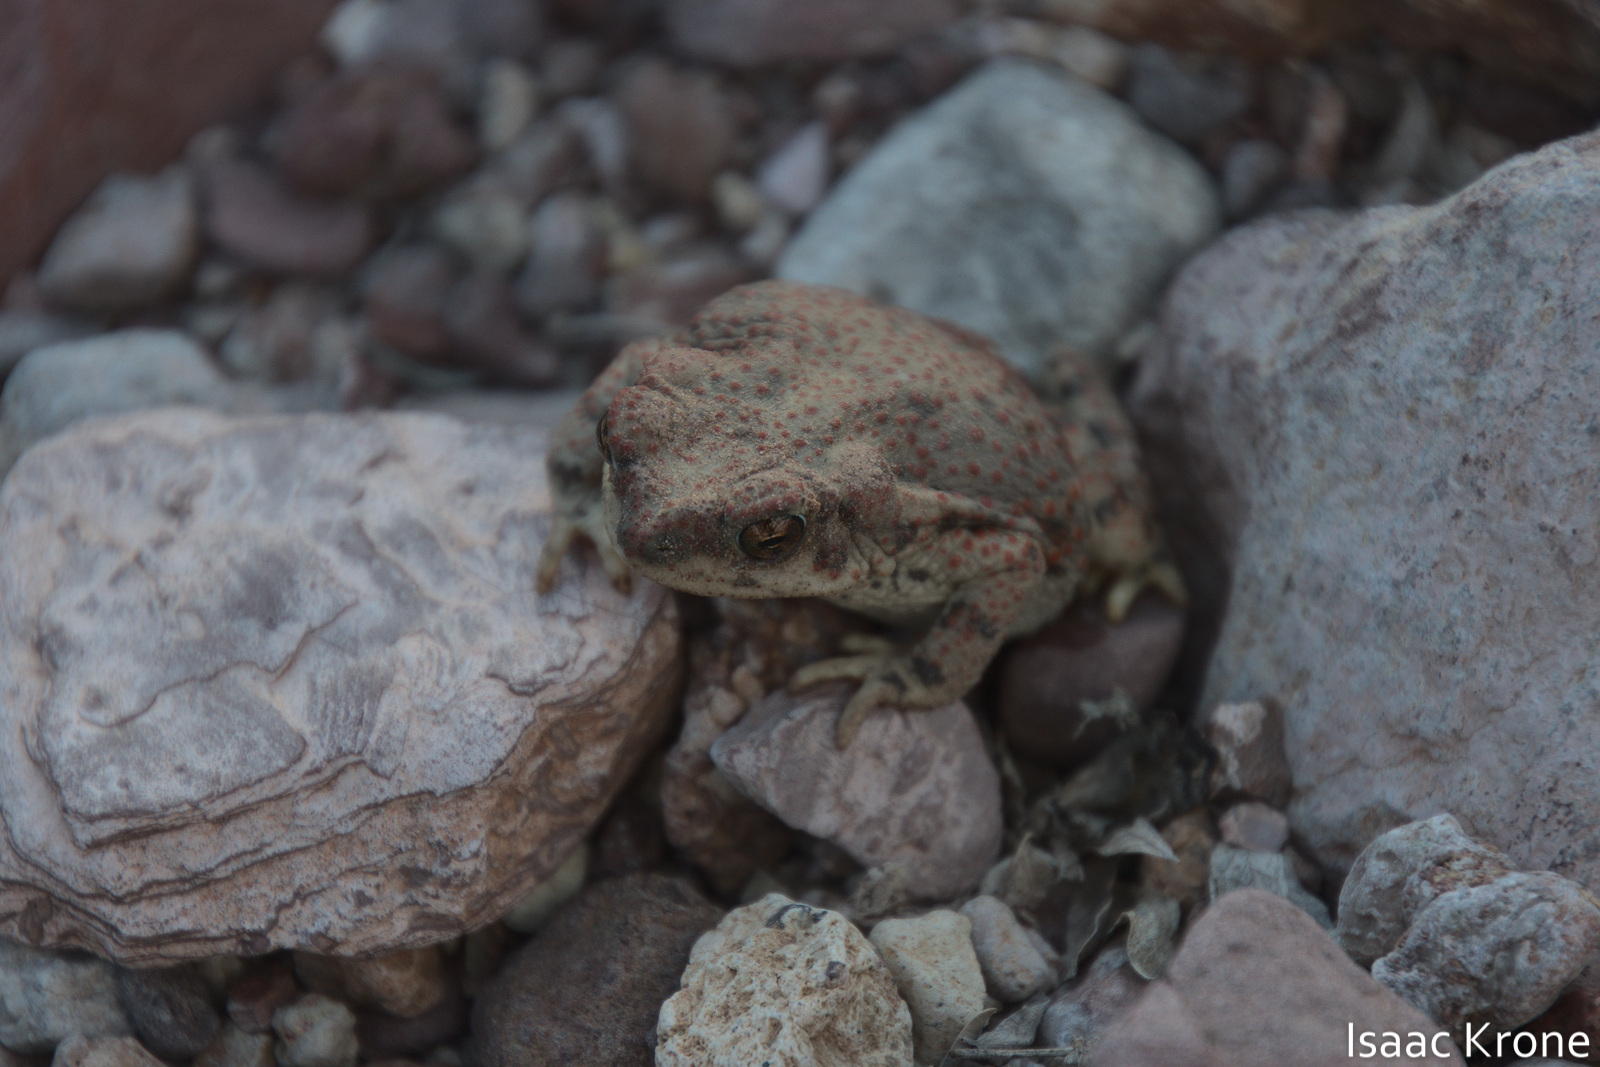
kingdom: Animalia
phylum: Chordata
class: Amphibia
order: Anura
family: Bufonidae
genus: Anaxyrus
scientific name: Anaxyrus punctatus
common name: Red-spotted toad
